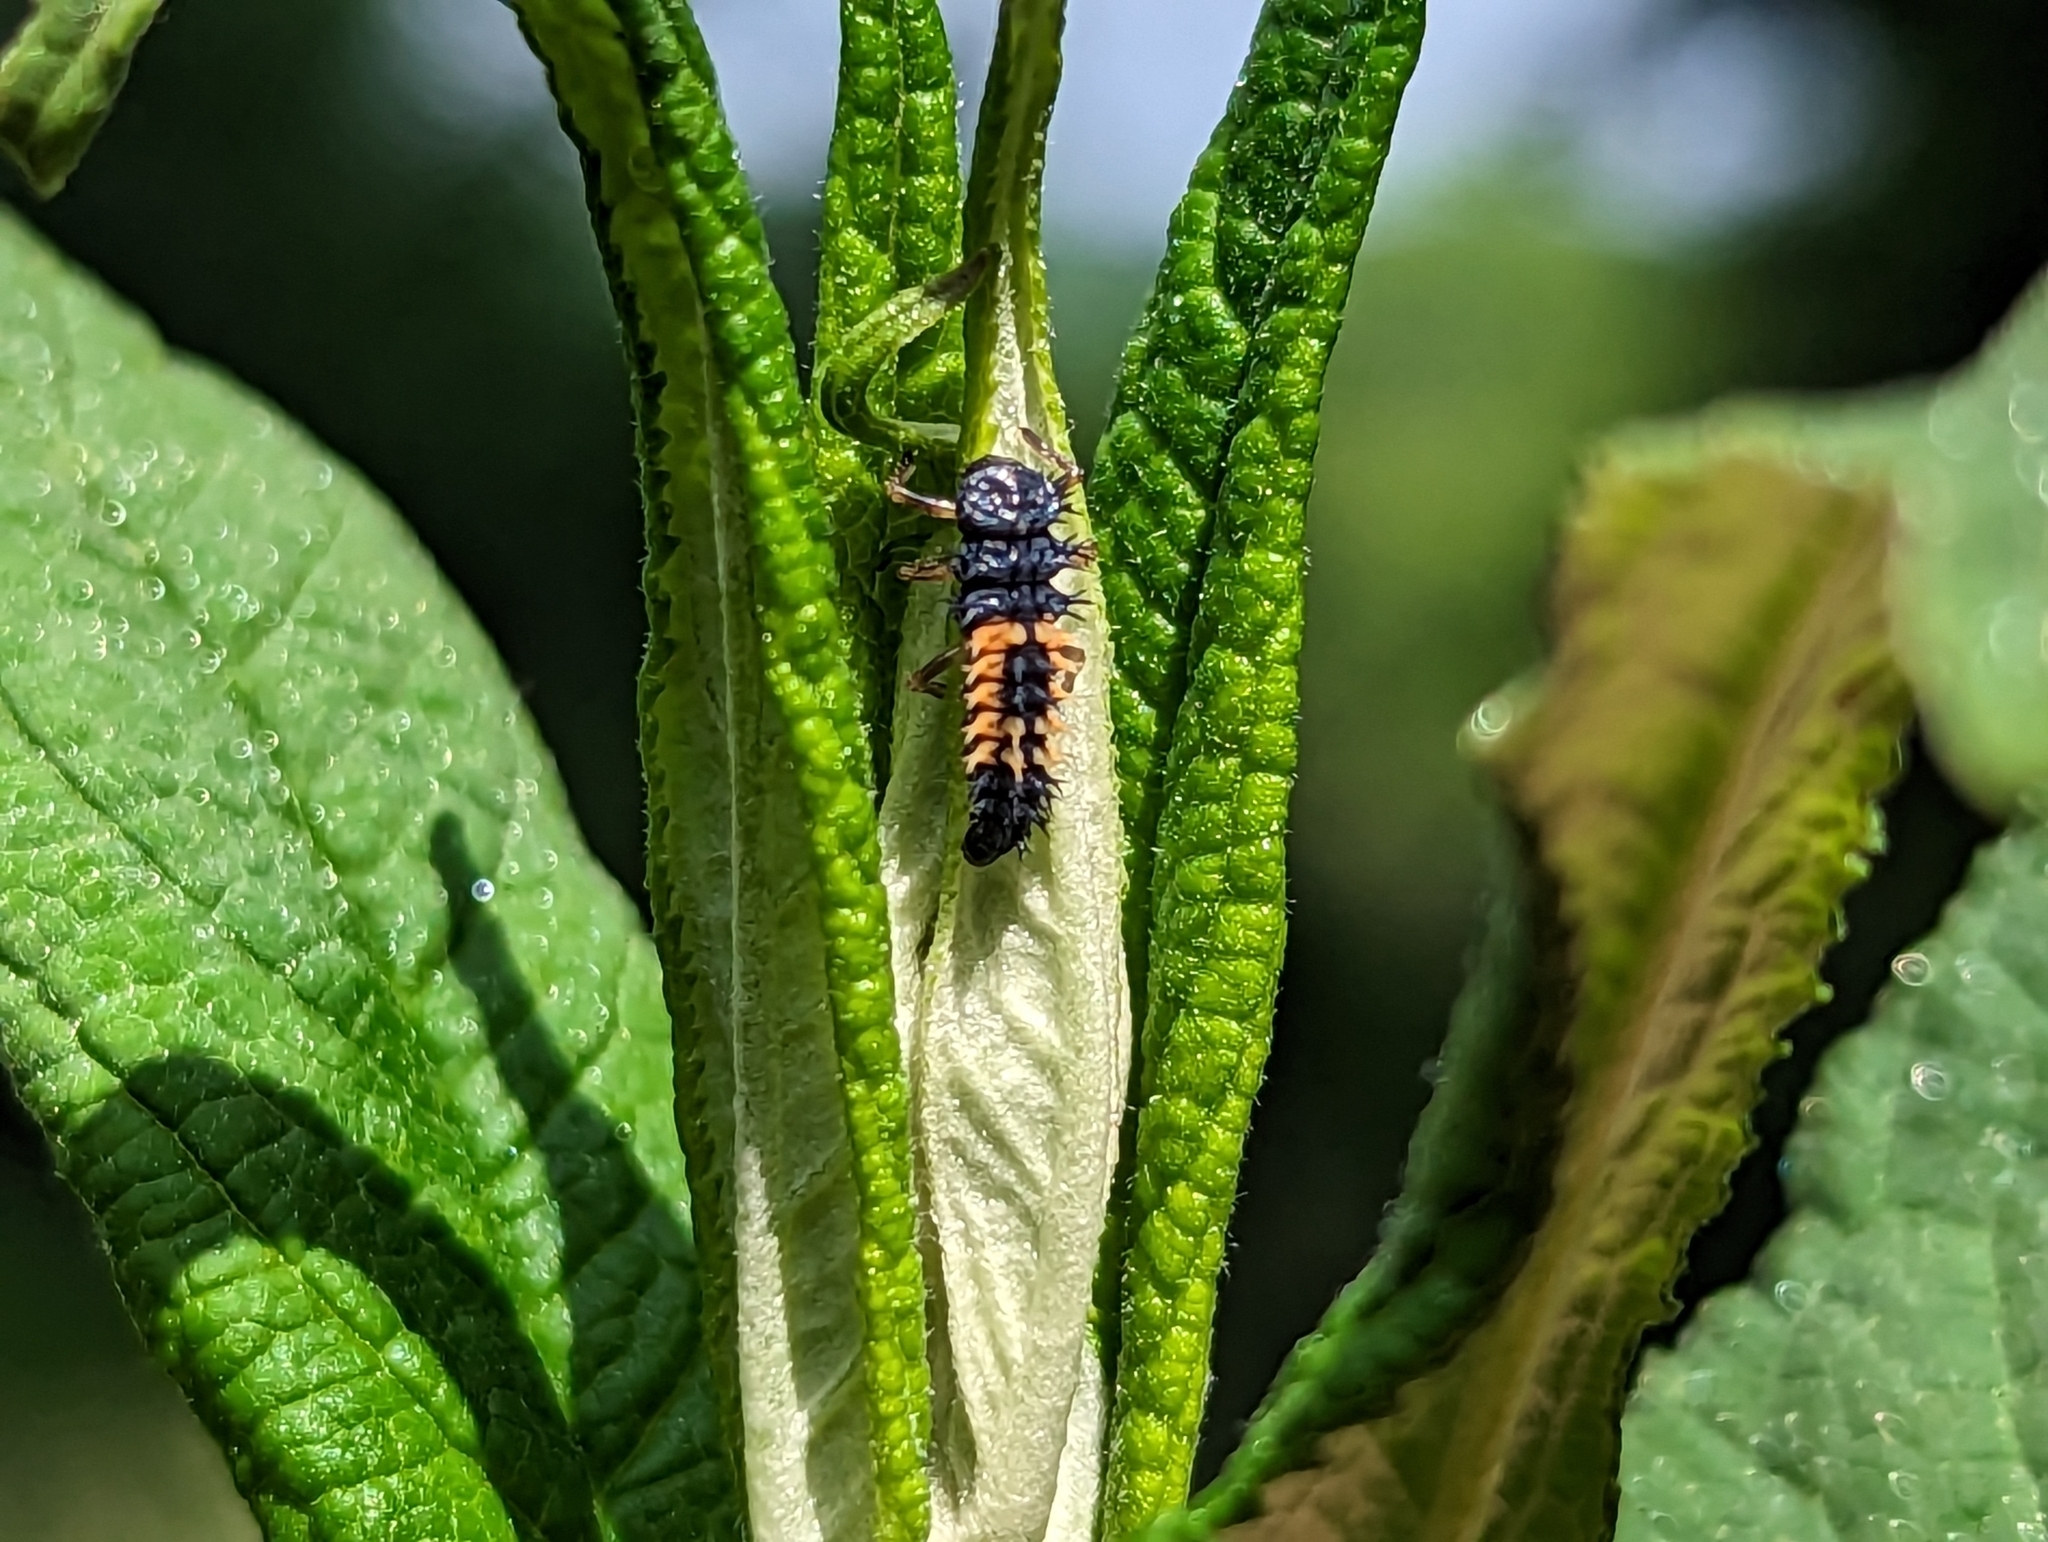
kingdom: Animalia
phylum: Arthropoda
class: Insecta
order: Coleoptera
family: Coccinellidae
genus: Harmonia
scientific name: Harmonia axyridis
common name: Harlequin ladybird
